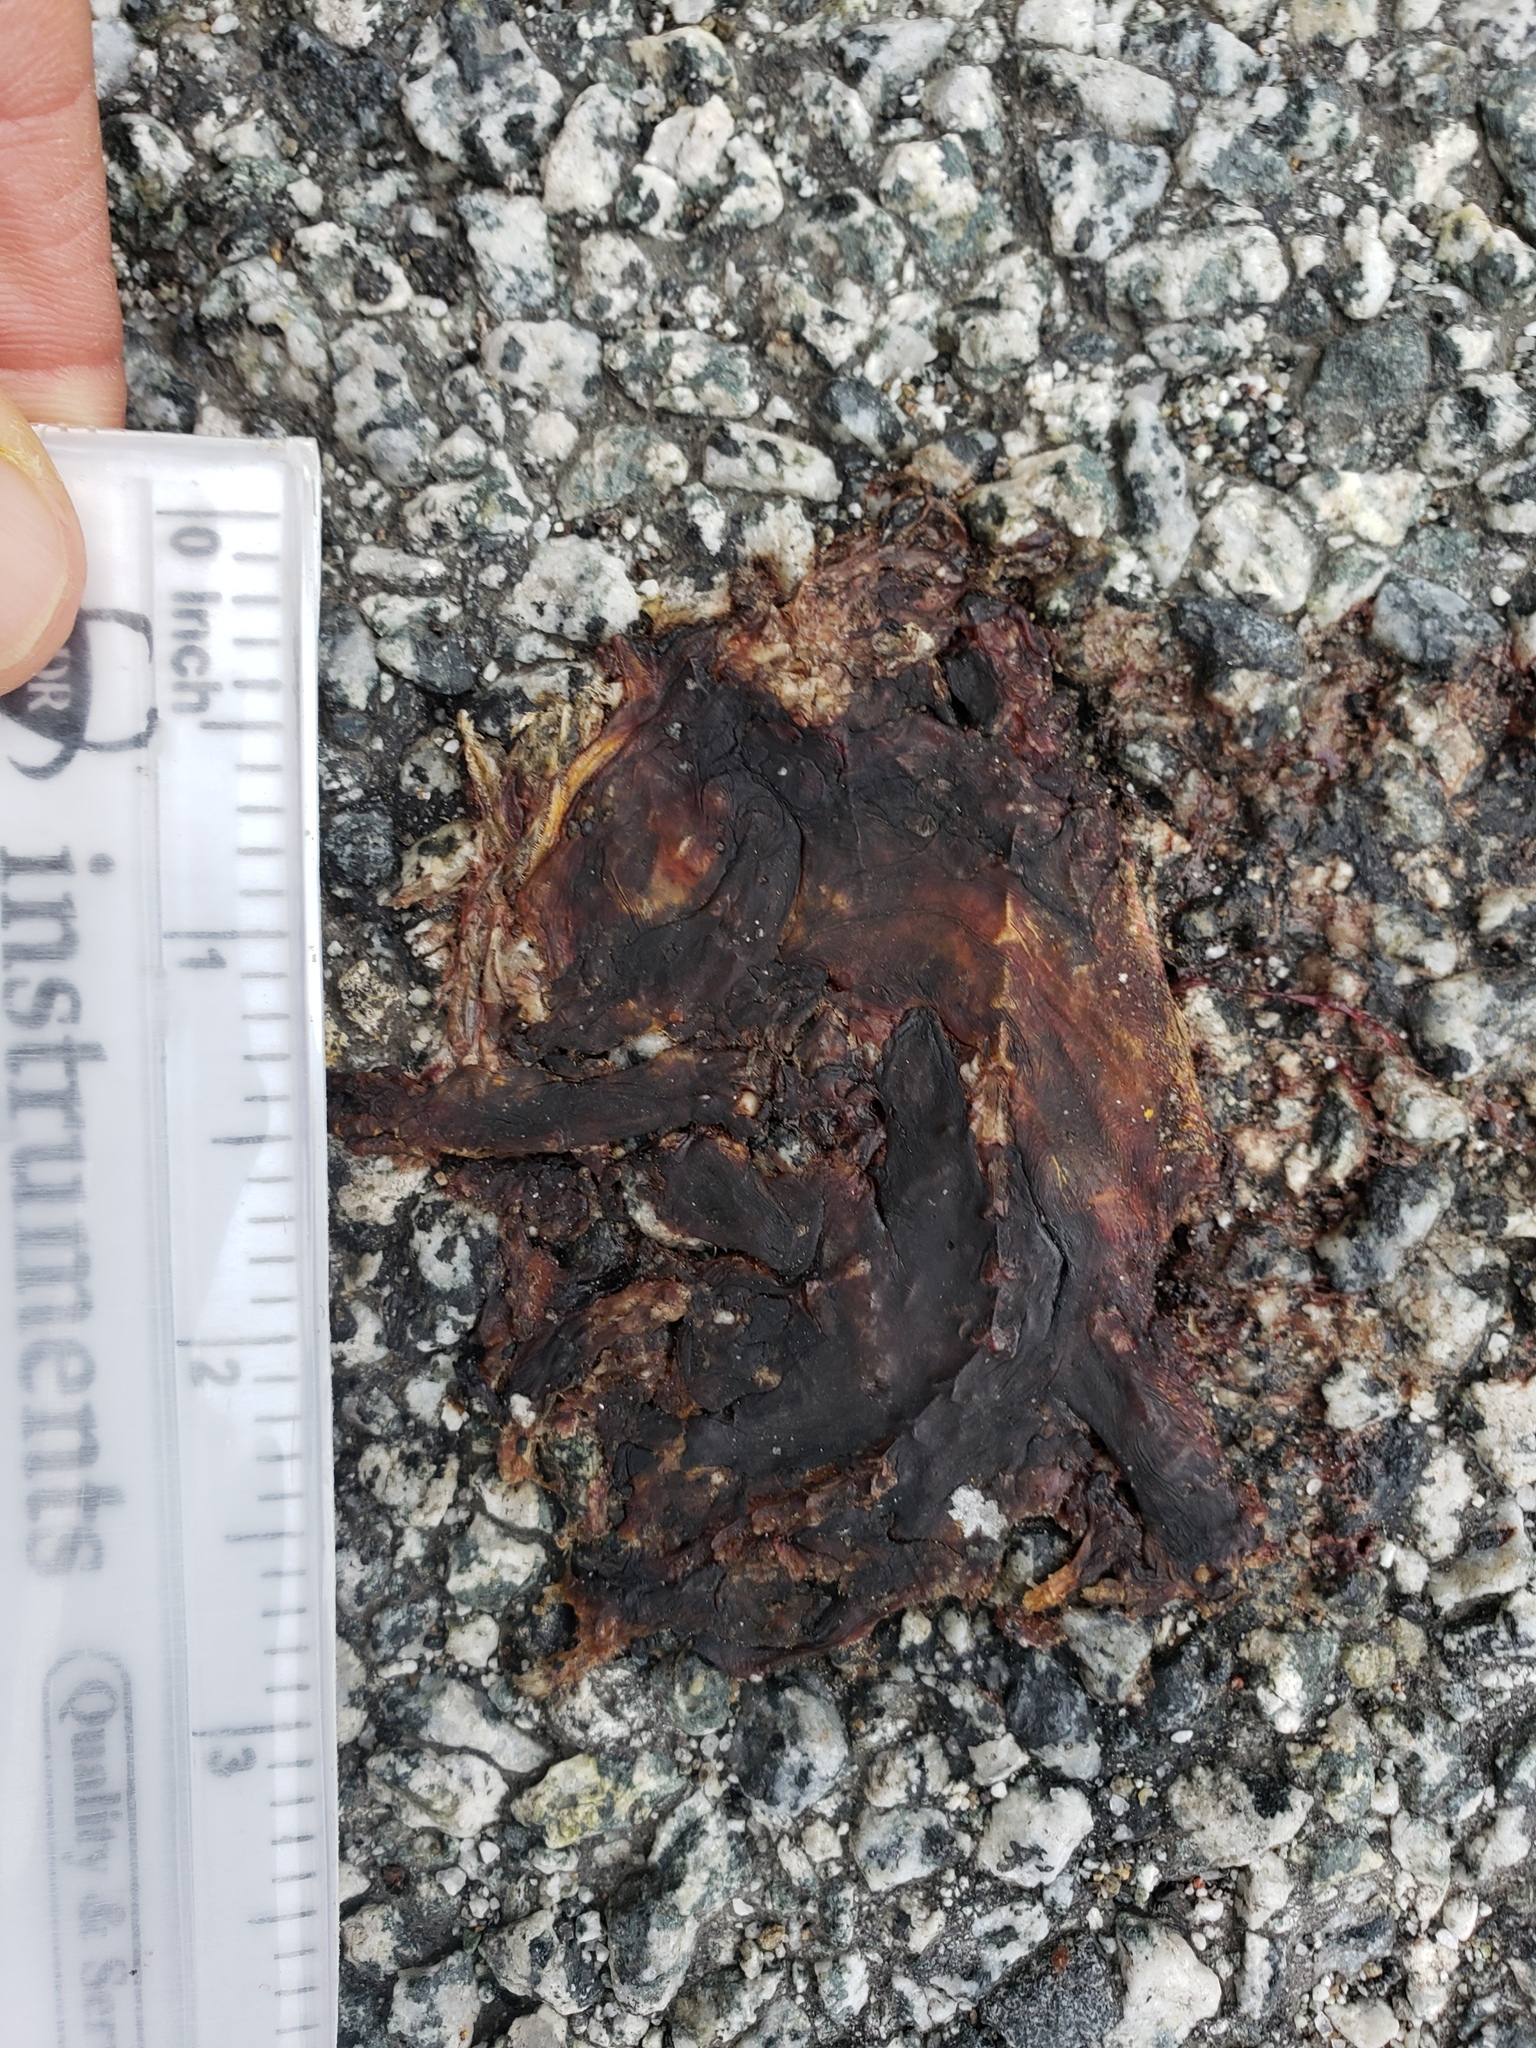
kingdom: Animalia
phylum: Chordata
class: Amphibia
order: Caudata
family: Salamandridae
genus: Taricha
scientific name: Taricha
